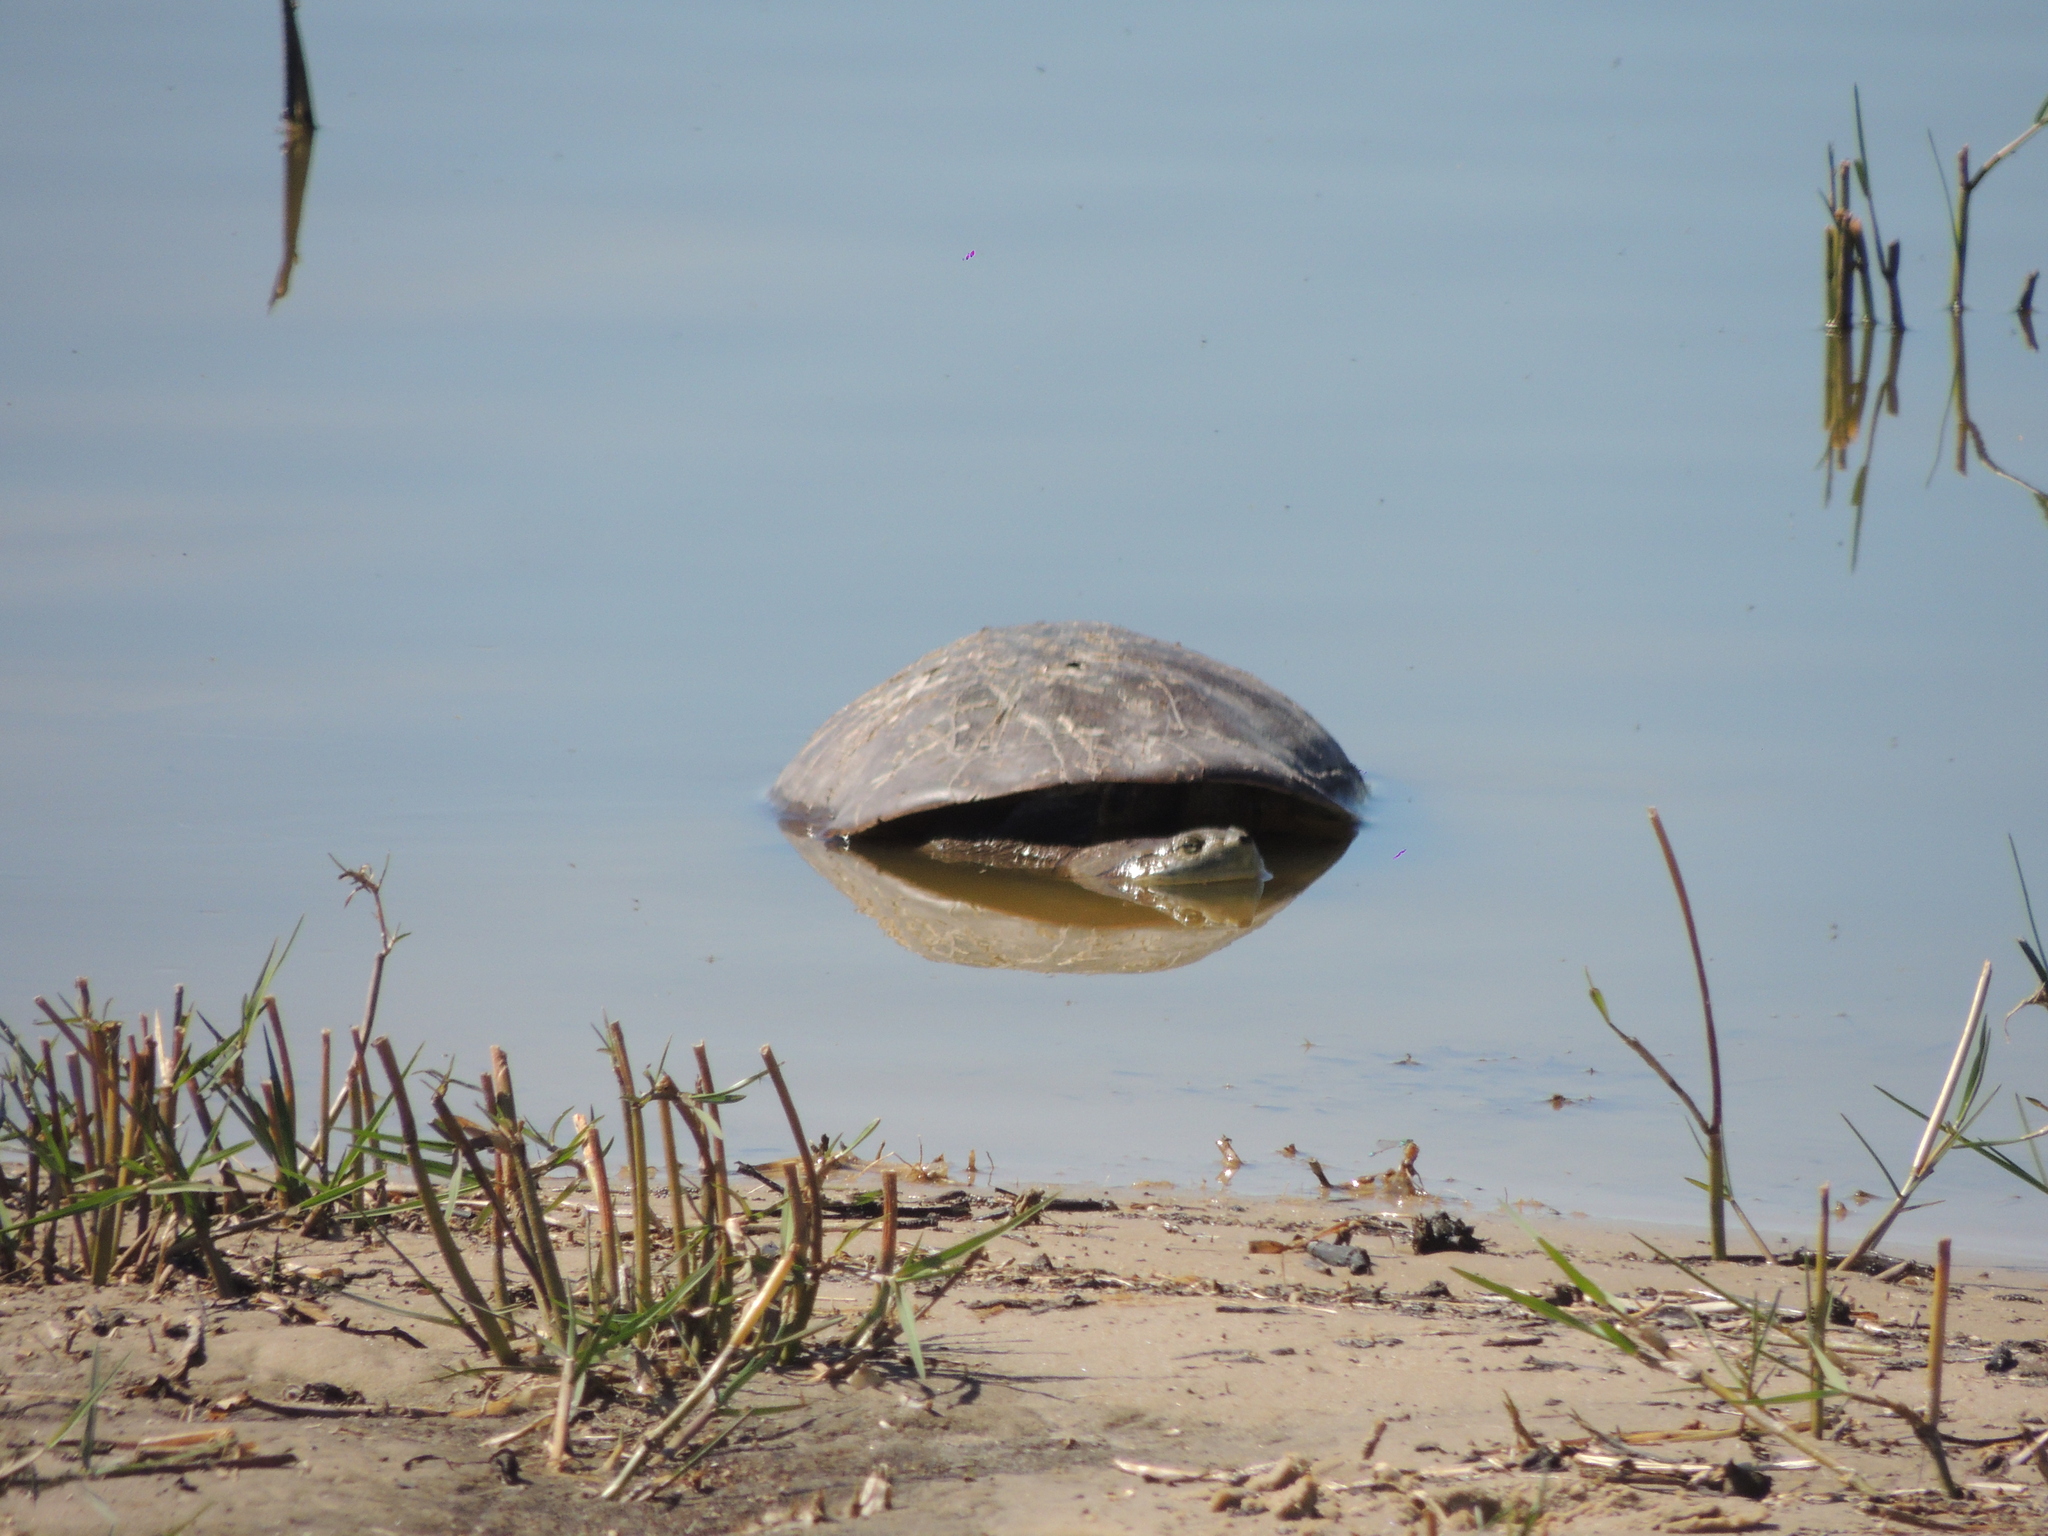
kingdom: Animalia
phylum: Chordata
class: Testudines
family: Chelidae
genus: Phrynops
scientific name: Phrynops hilarii
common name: Side-necked turtle of saint hillaire
